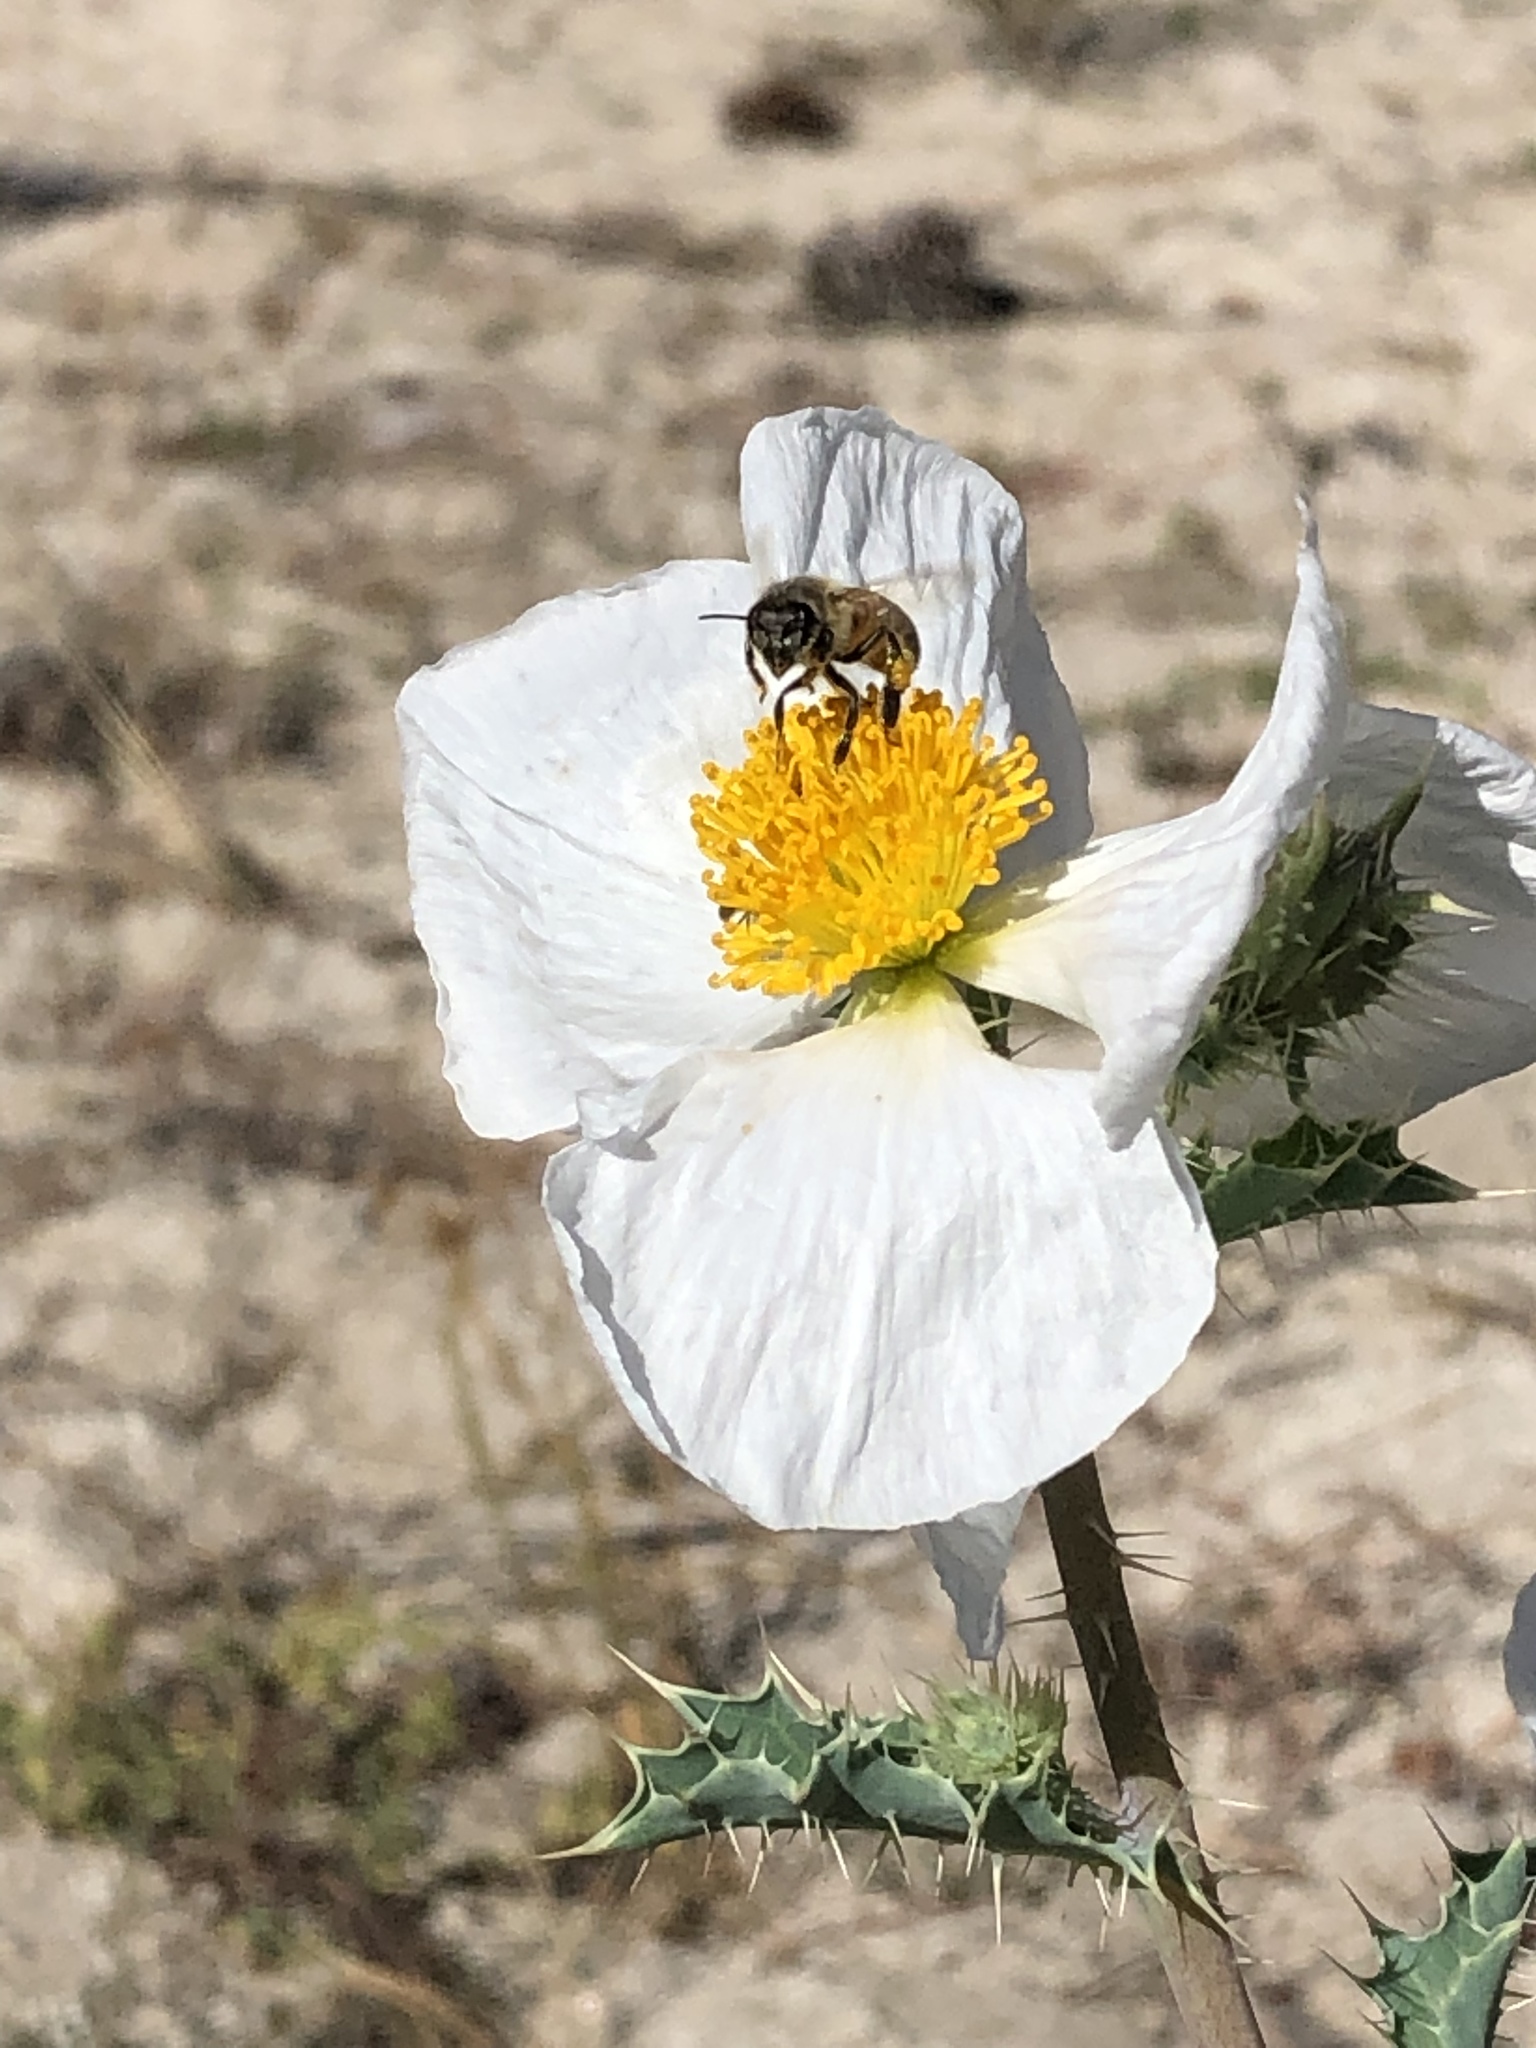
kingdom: Plantae
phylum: Tracheophyta
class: Magnoliopsida
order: Ranunculales
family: Papaveraceae
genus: Argemone
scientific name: Argemone munita
